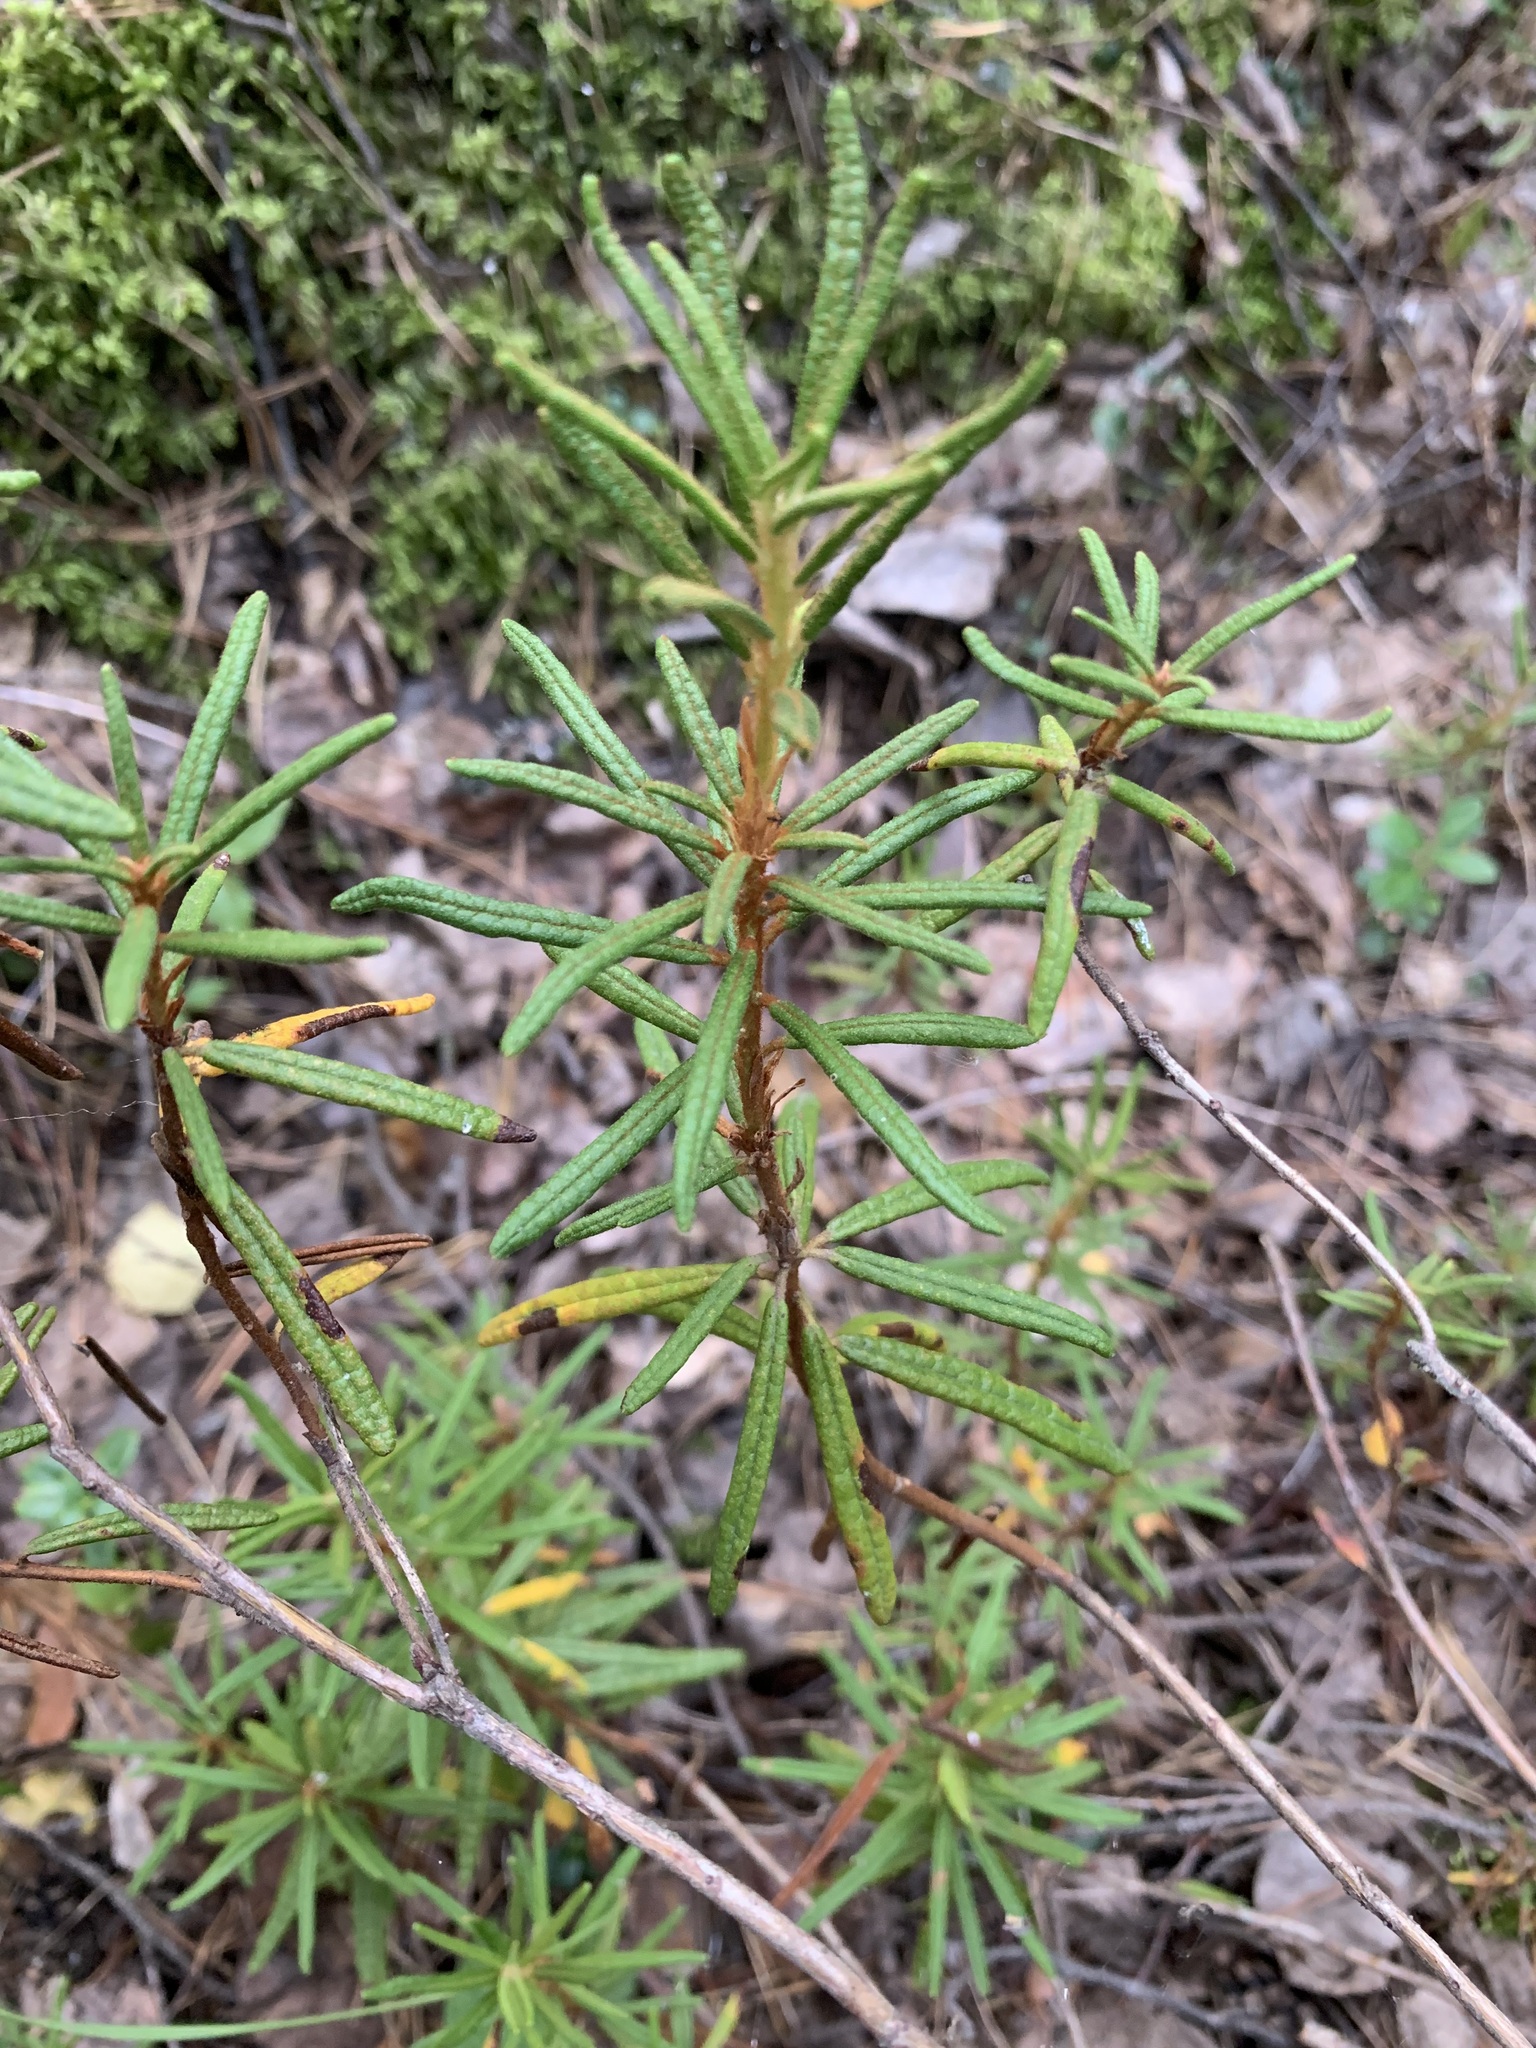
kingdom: Plantae
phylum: Tracheophyta
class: Magnoliopsida
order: Ericales
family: Ericaceae
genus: Rhododendron
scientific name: Rhododendron tomentosum
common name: Marsh labrador tea
